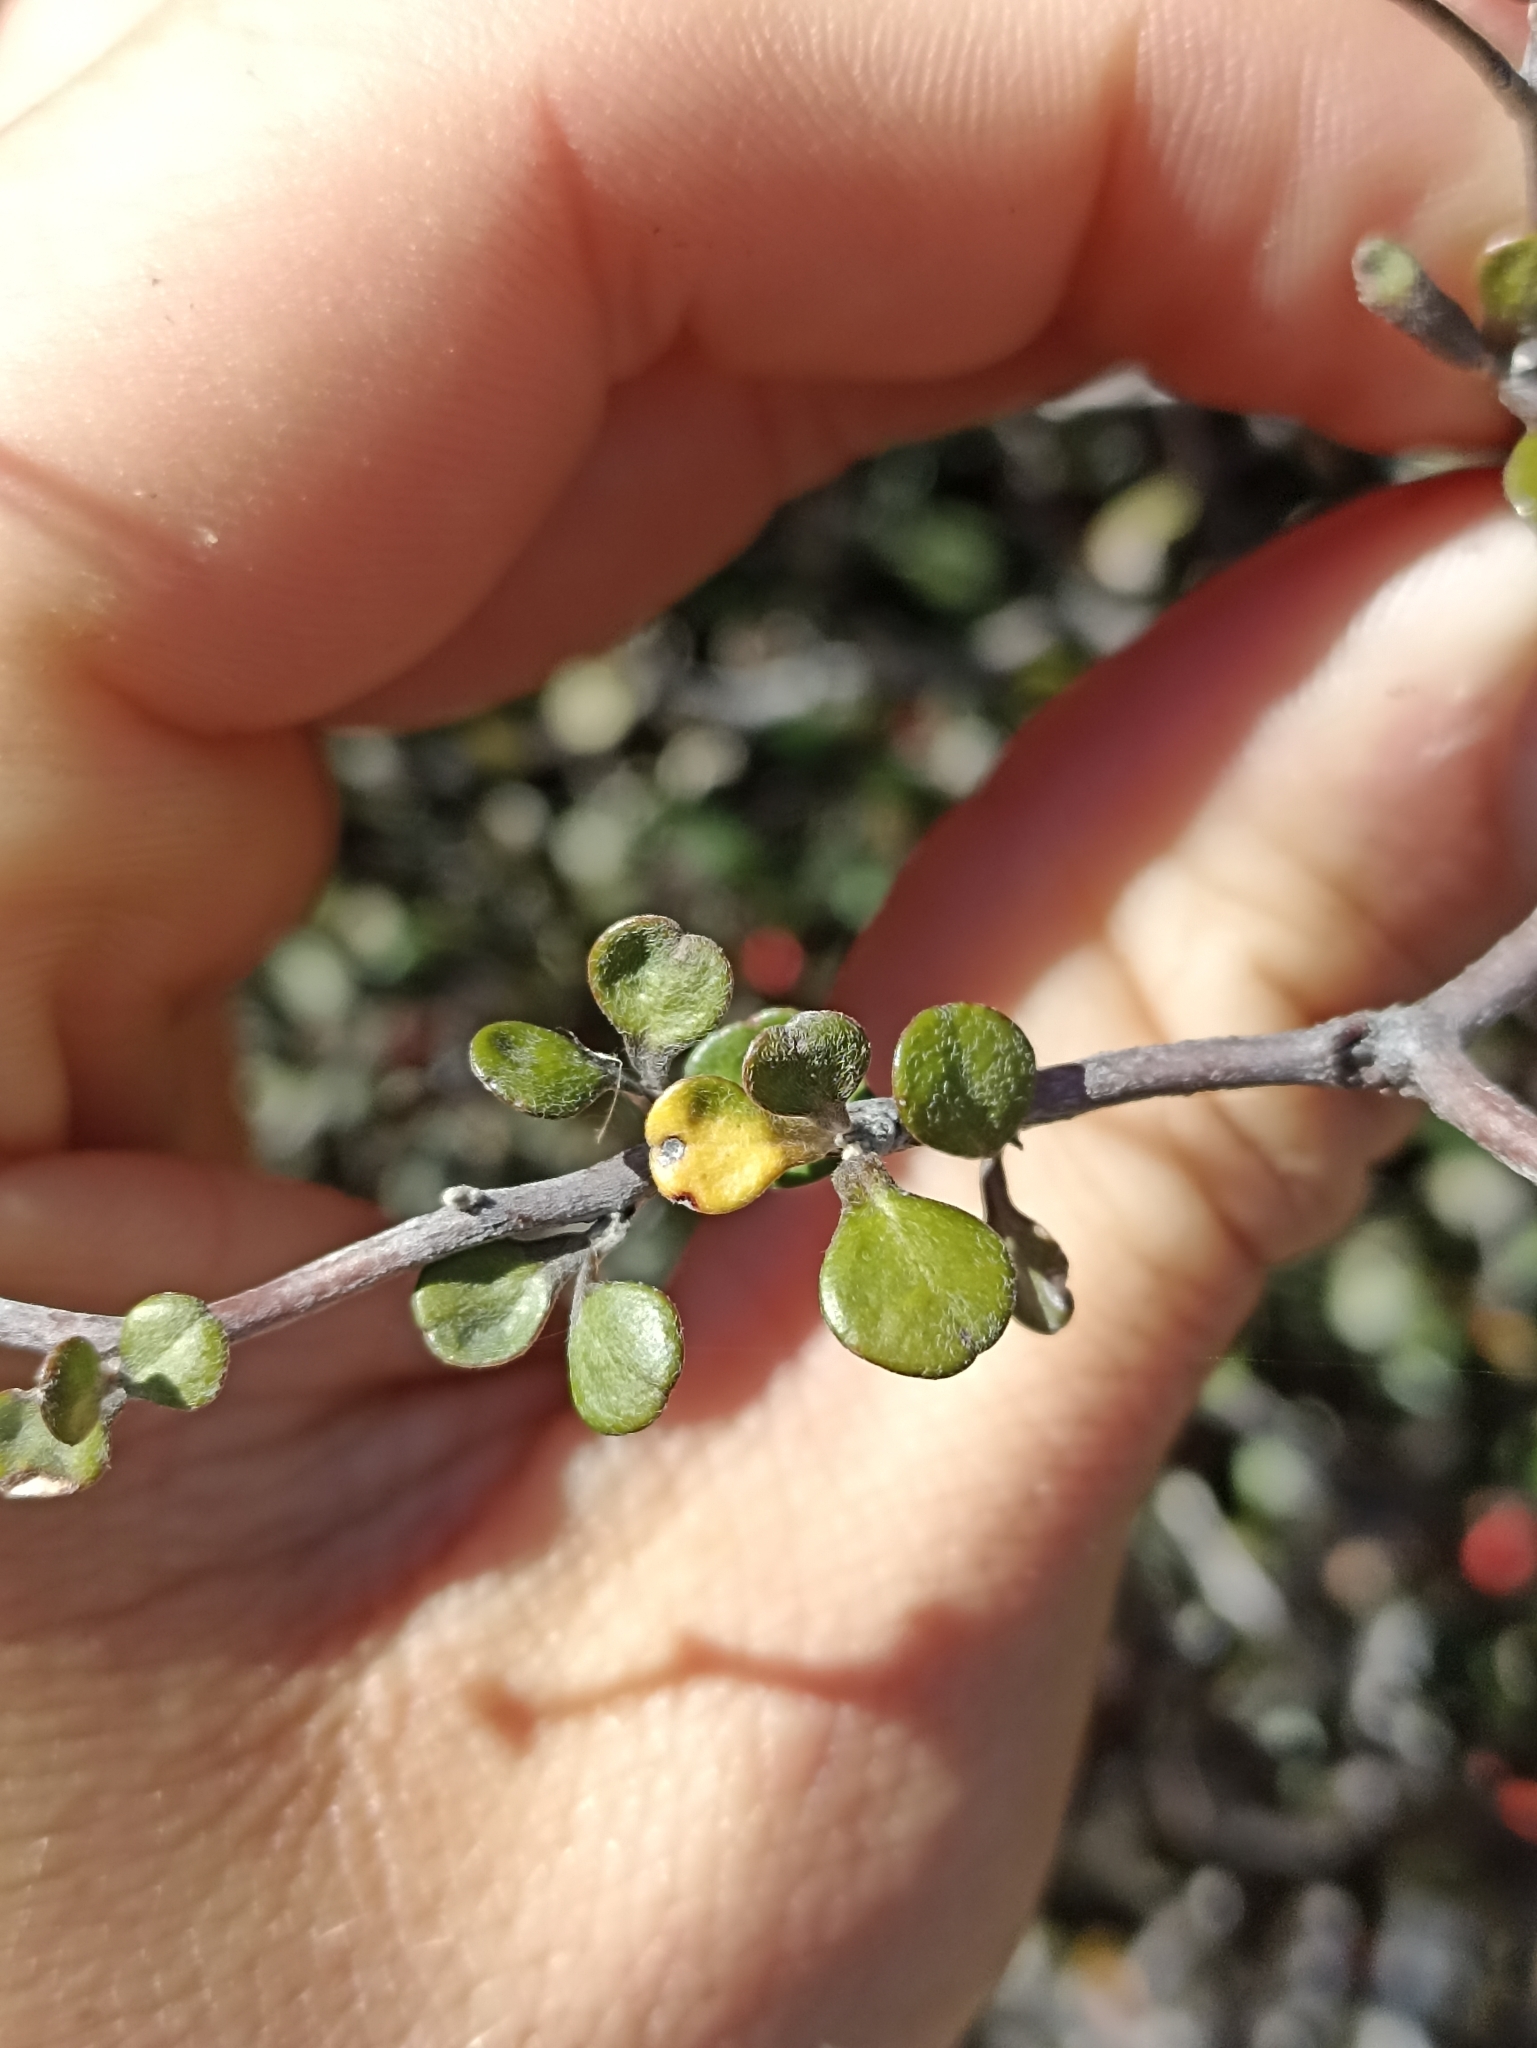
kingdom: Plantae
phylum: Tracheophyta
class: Magnoliopsida
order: Asterales
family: Argophyllaceae
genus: Corokia
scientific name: Corokia cotoneaster
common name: Wire nettingbush
